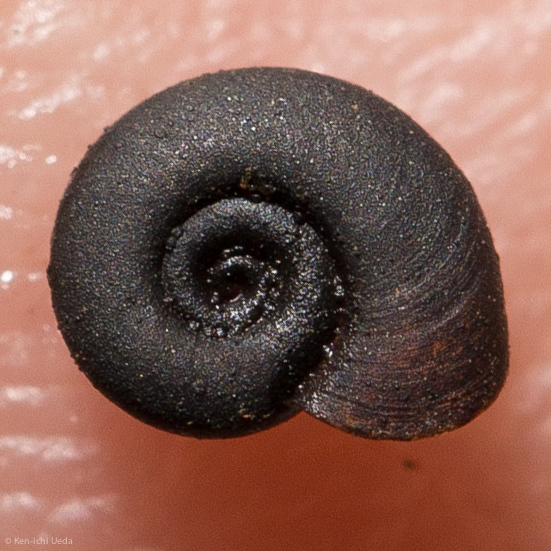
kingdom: Animalia
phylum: Mollusca
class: Gastropoda
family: Planorbidae
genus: Promenetus
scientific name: Promenetus umbilicatellus
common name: Umbilicate sprite
